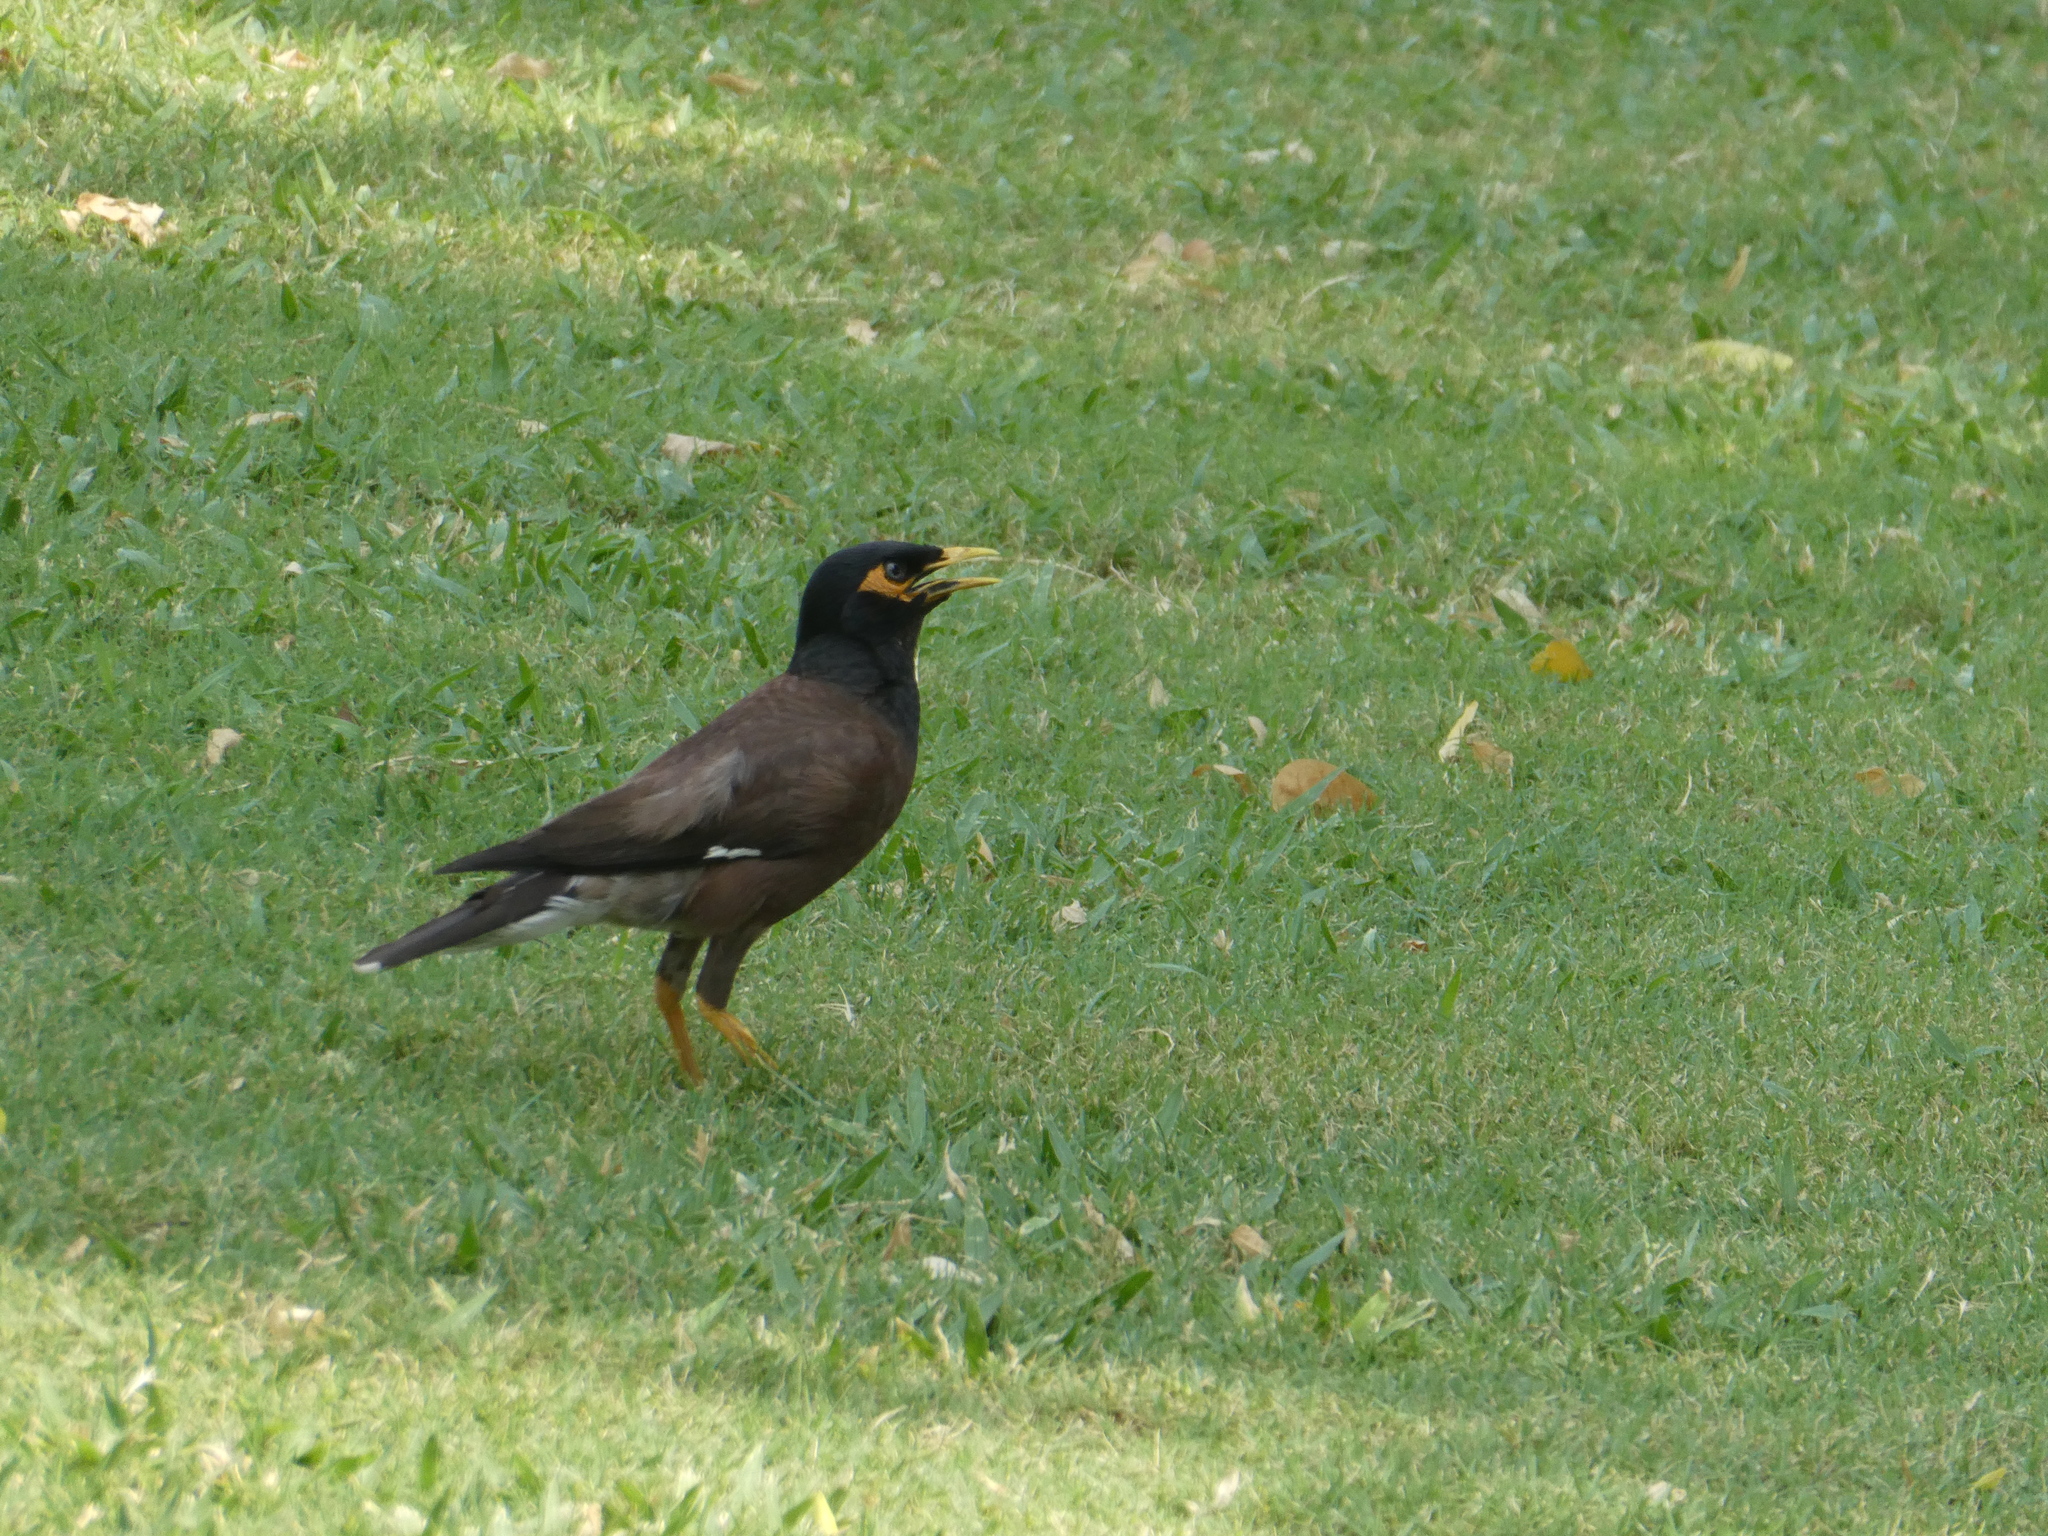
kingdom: Animalia
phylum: Chordata
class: Aves
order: Passeriformes
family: Sturnidae
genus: Acridotheres
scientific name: Acridotheres tristis
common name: Common myna
